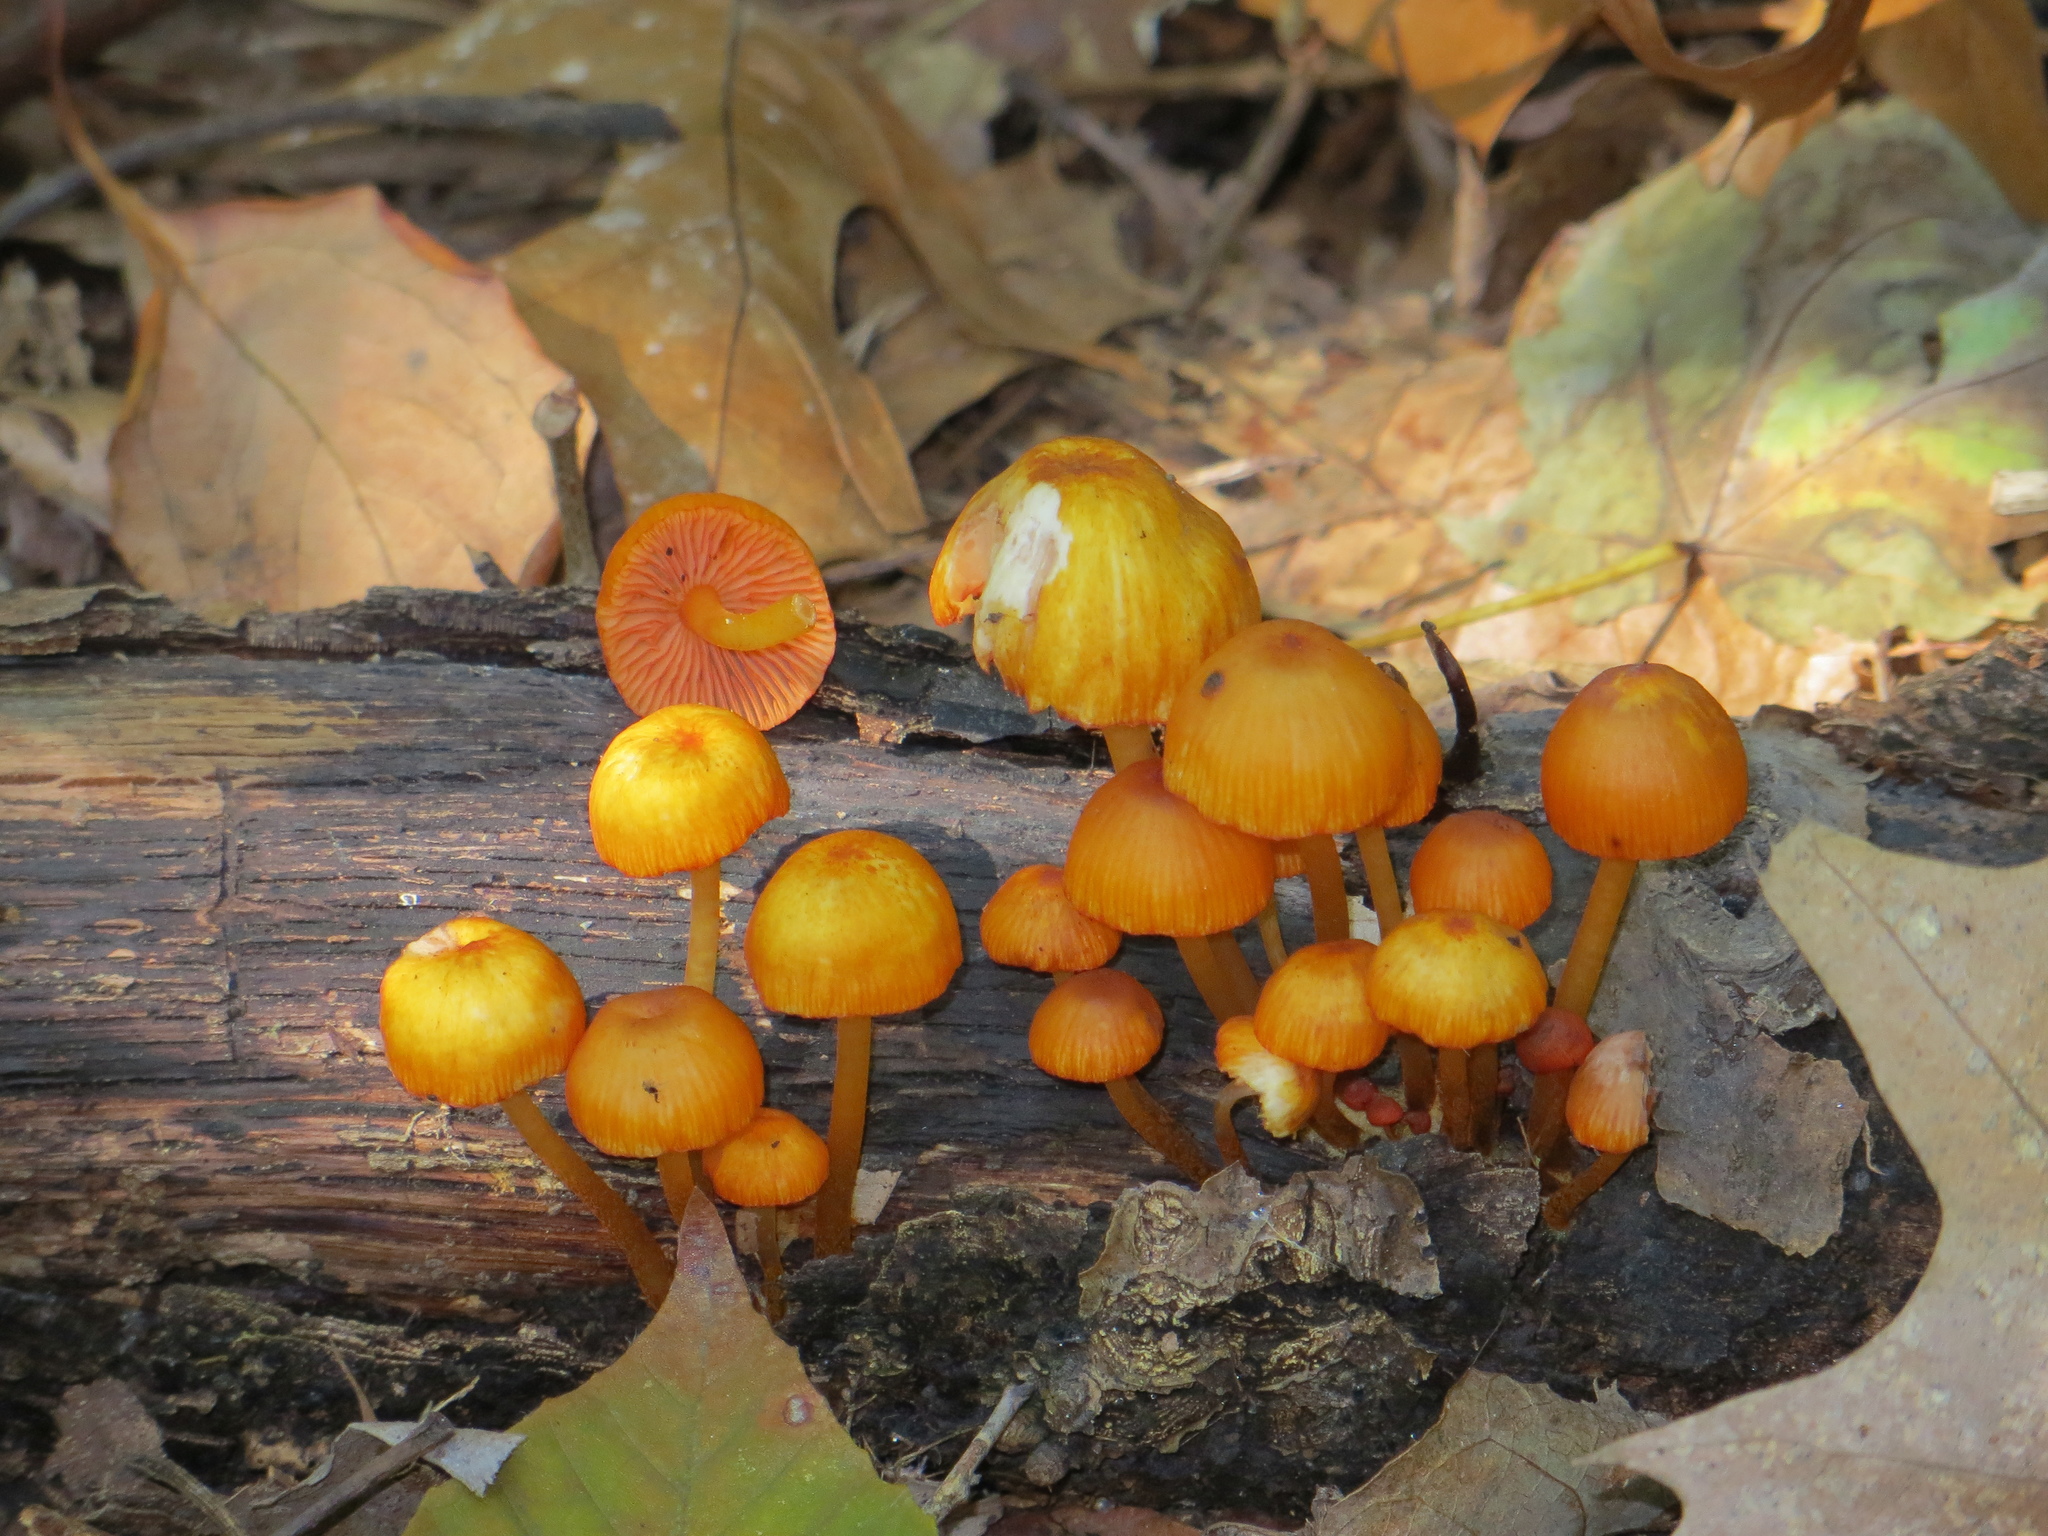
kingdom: Fungi
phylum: Basidiomycota
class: Agaricomycetes
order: Agaricales
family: Mycenaceae
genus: Mycena
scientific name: Mycena leaiana
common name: Orange mycena
